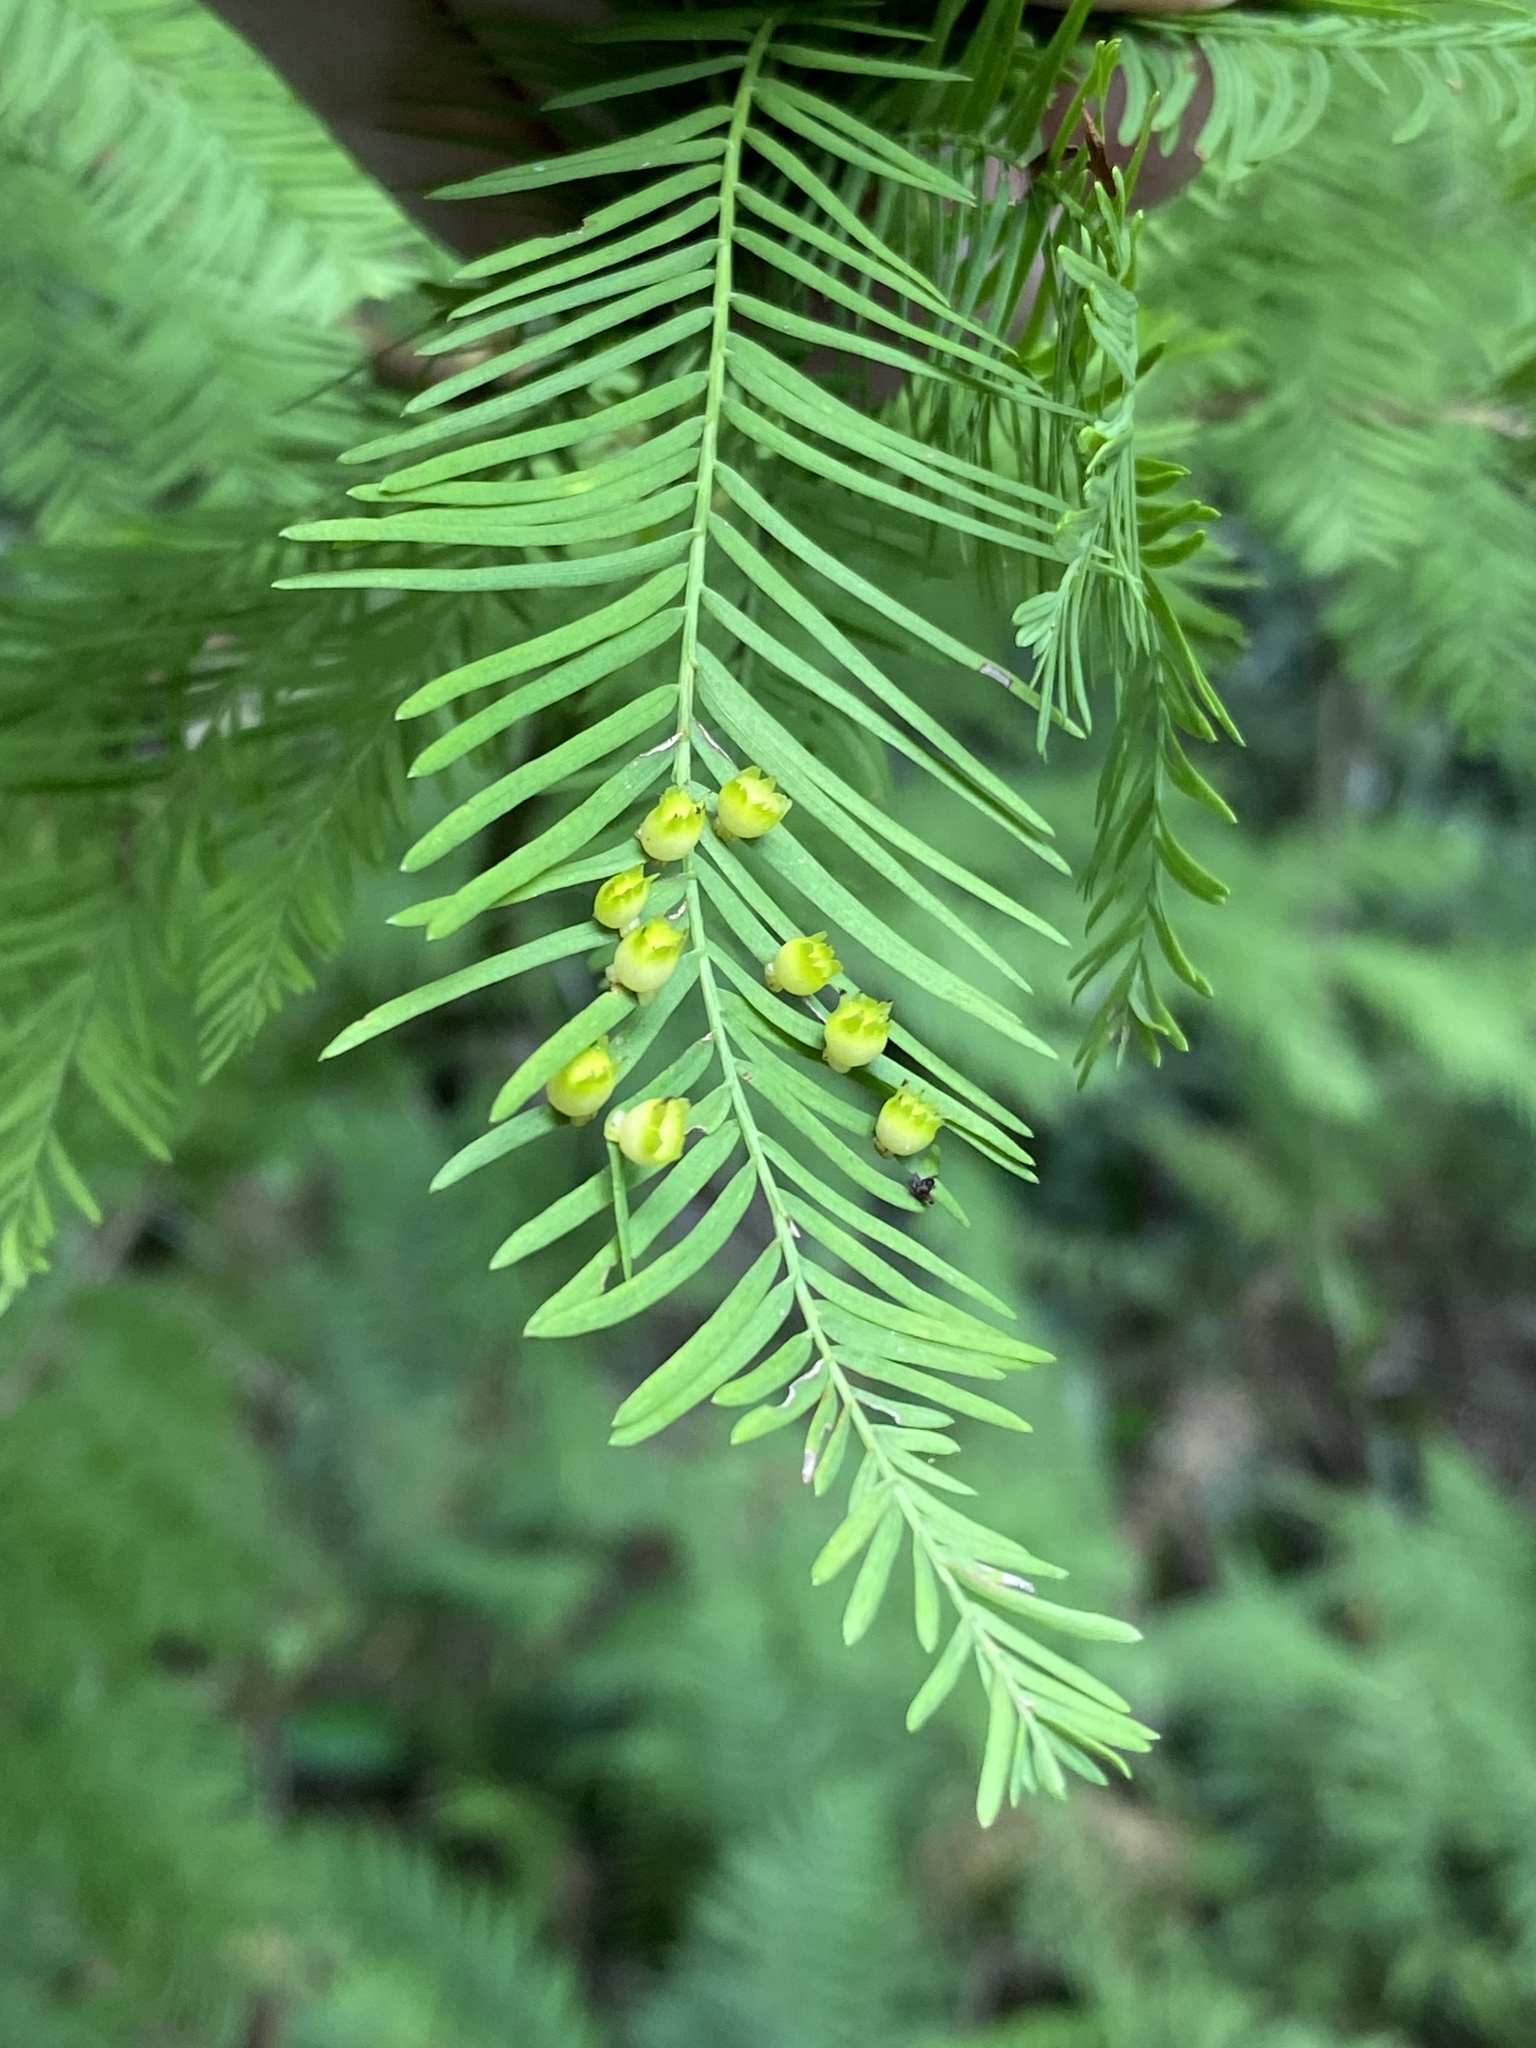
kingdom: Animalia
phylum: Arthropoda
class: Insecta
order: Diptera
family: Cecidomyiidae
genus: Taxodiomyia
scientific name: Taxodiomyia cupressi
